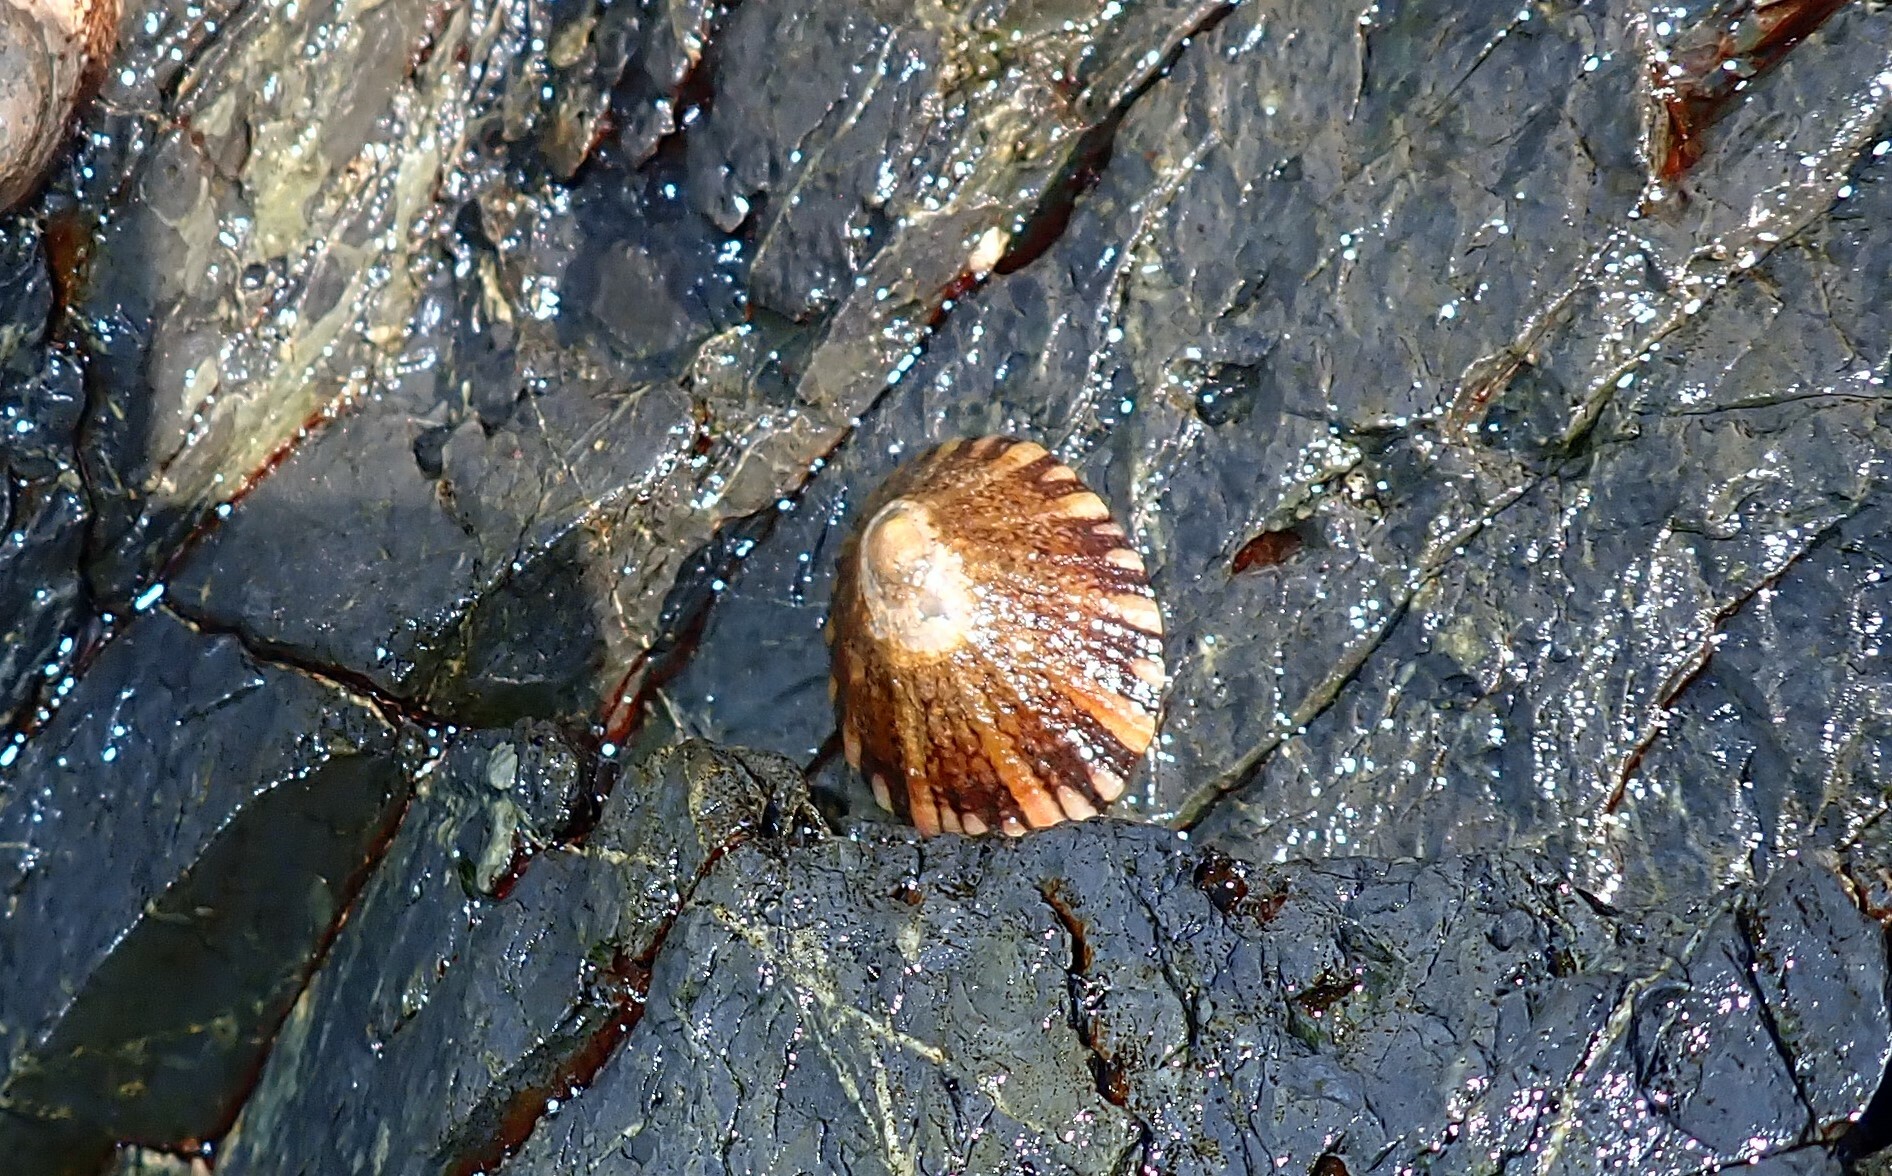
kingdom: Animalia
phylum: Mollusca
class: Gastropoda
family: Nacellidae
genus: Cellana
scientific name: Cellana tramoserica
